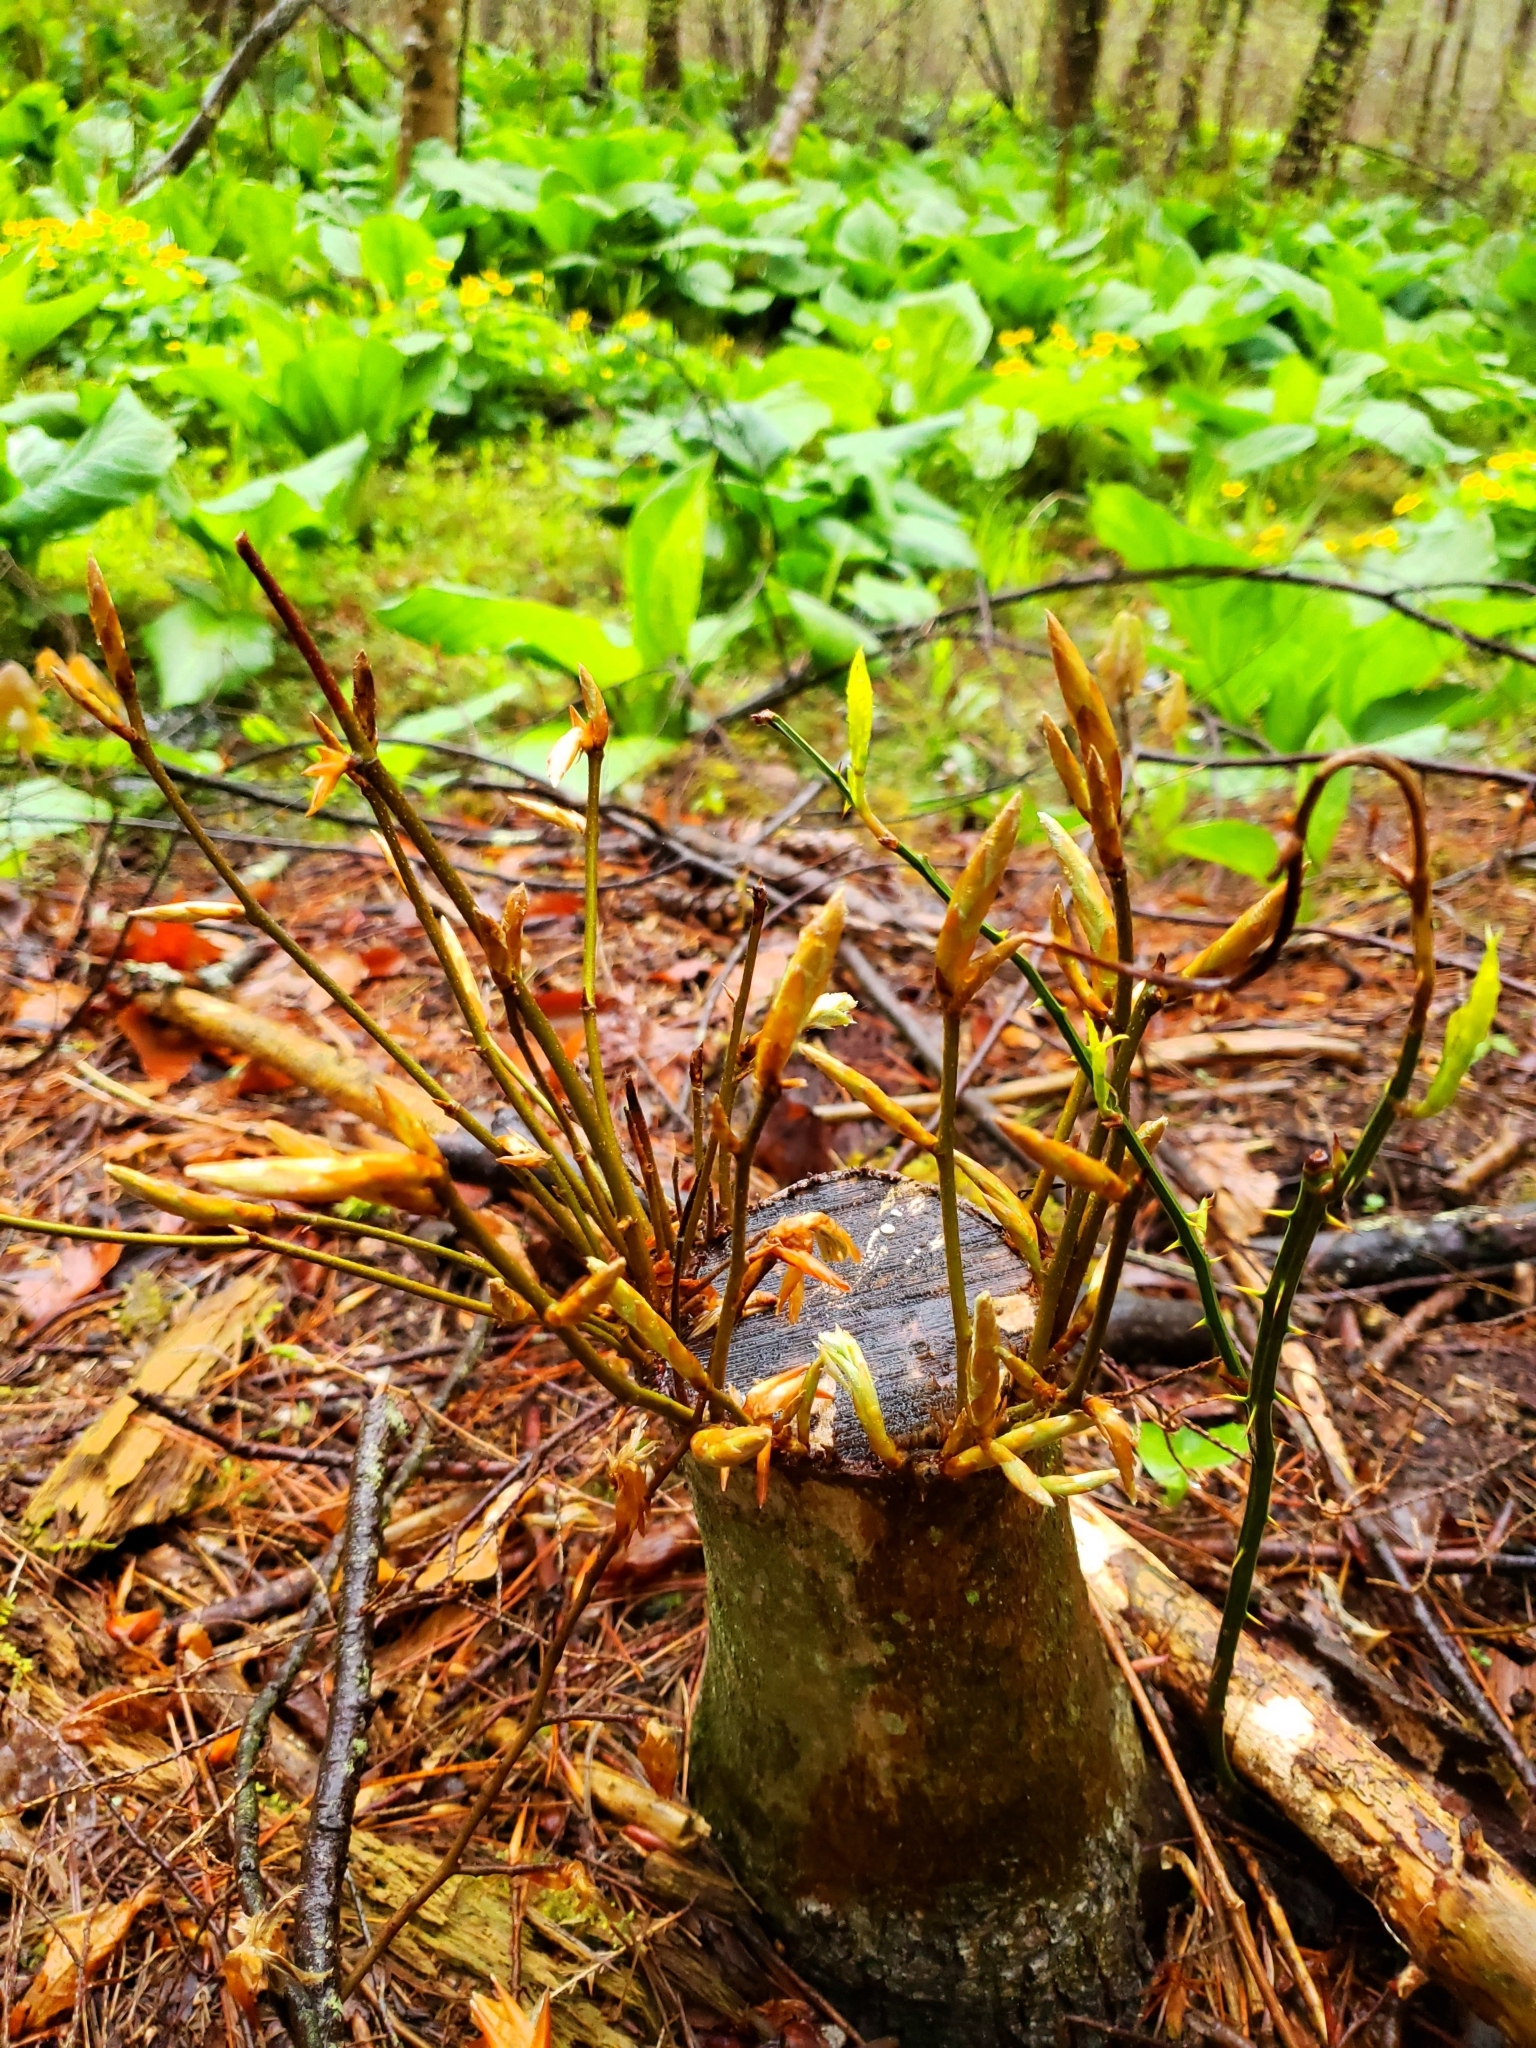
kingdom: Plantae
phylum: Tracheophyta
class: Magnoliopsida
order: Fagales
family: Fagaceae
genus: Fagus
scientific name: Fagus grandifolia
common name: American beech
